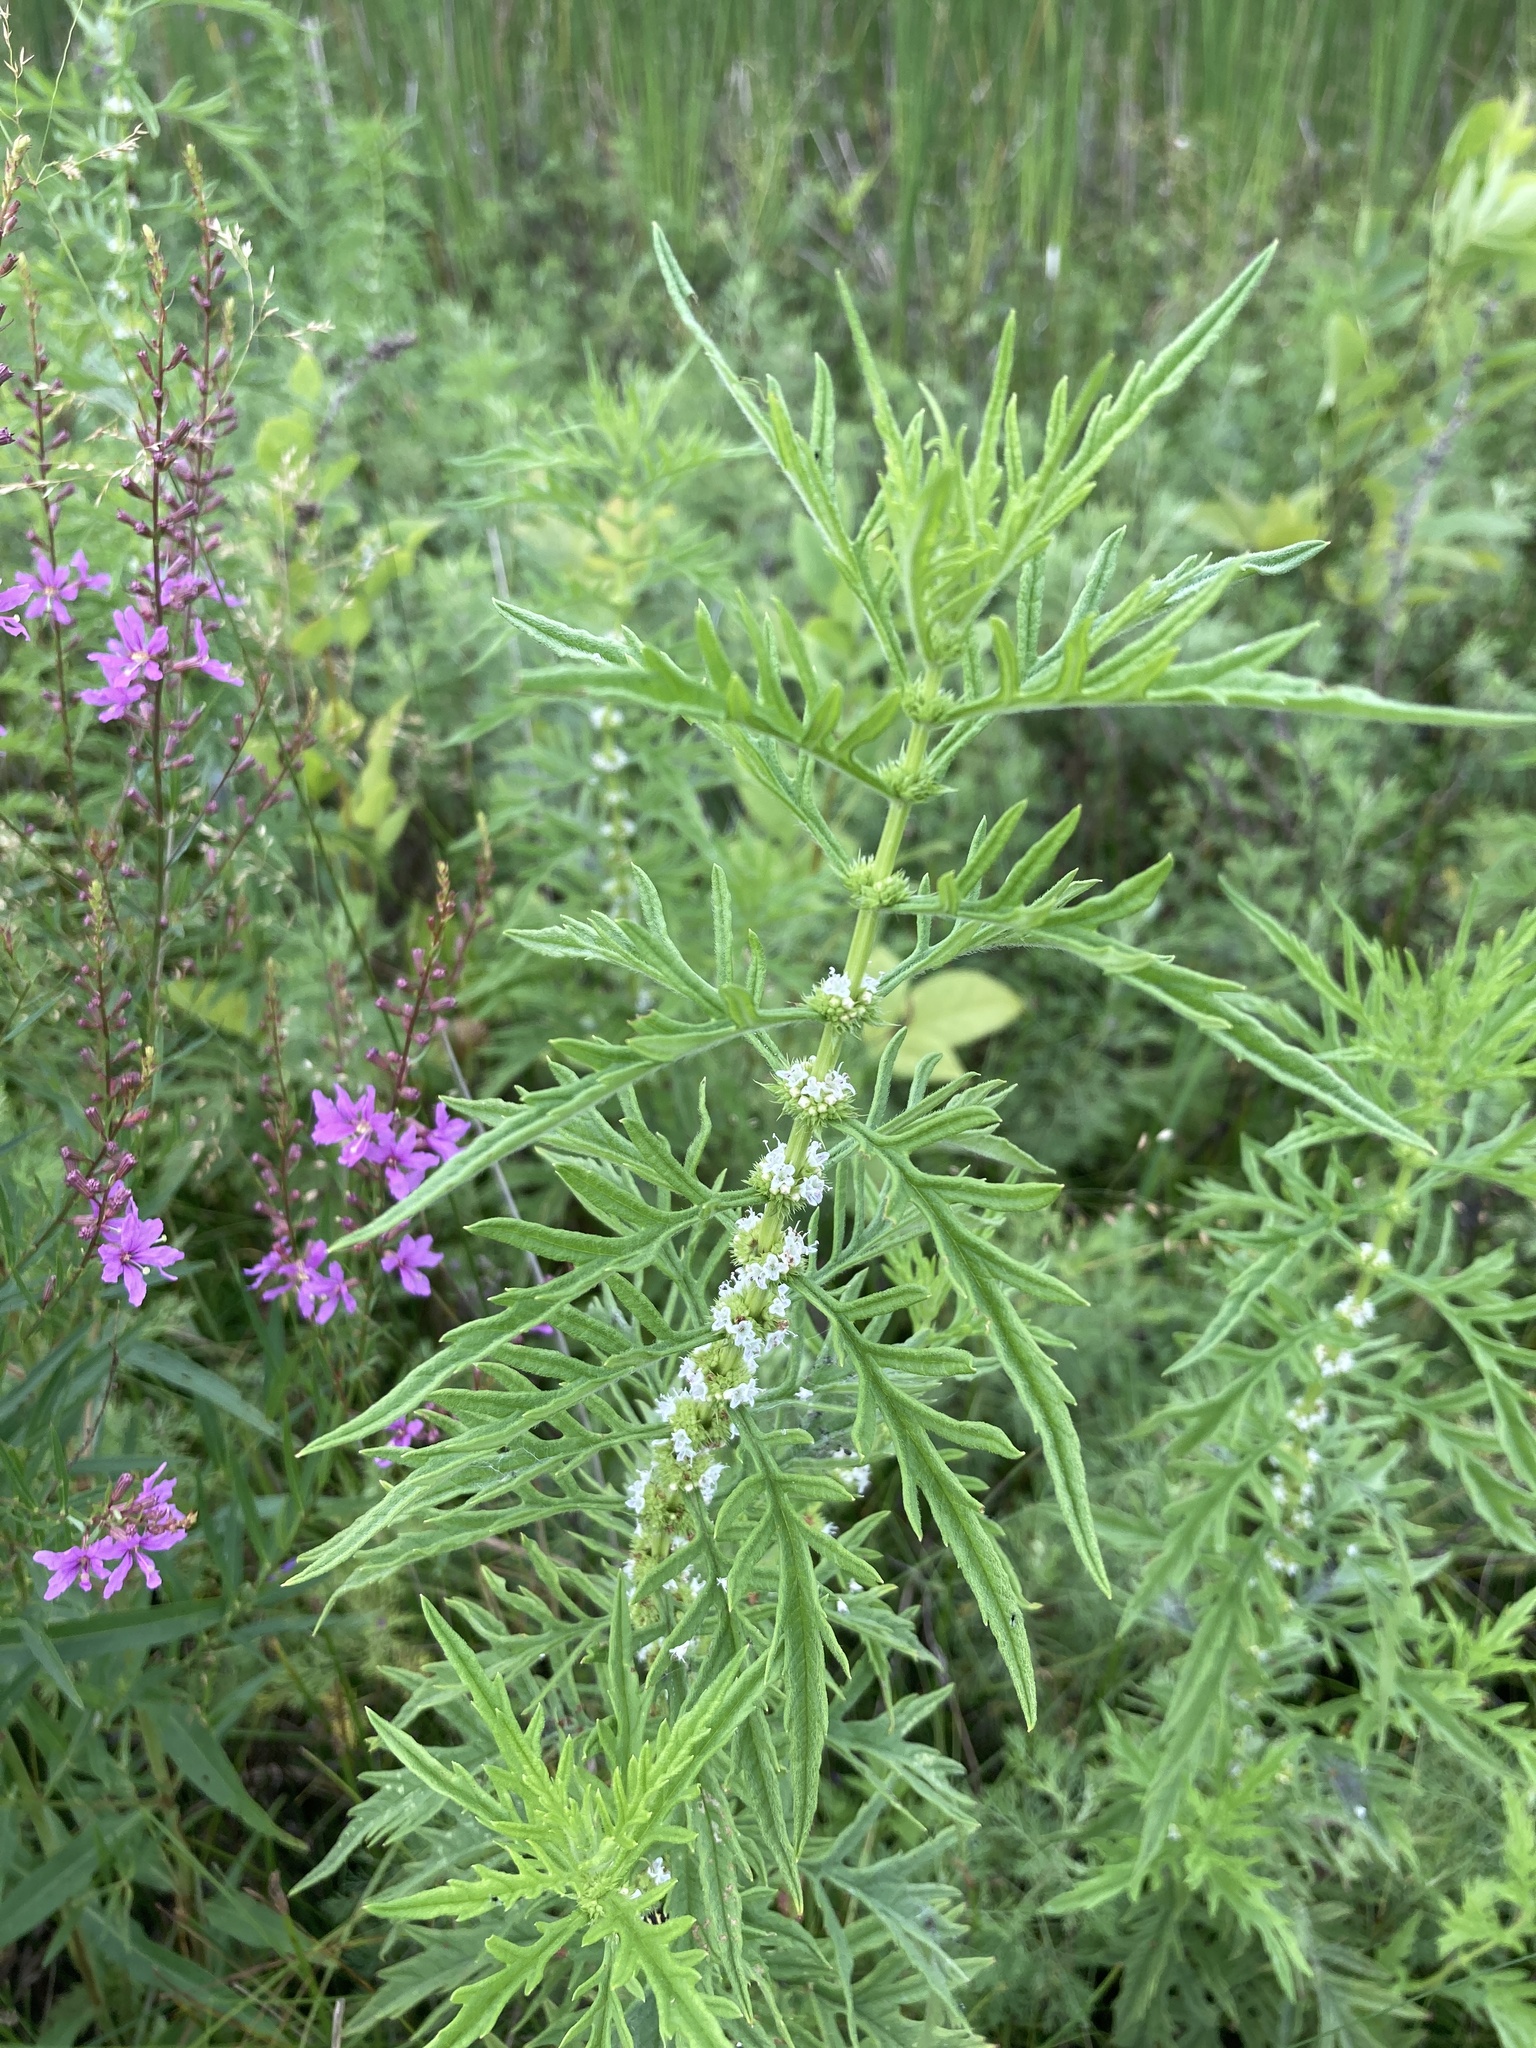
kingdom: Plantae
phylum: Tracheophyta
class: Magnoliopsida
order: Lamiales
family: Lamiaceae
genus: Lycopus
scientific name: Lycopus exaltatus
